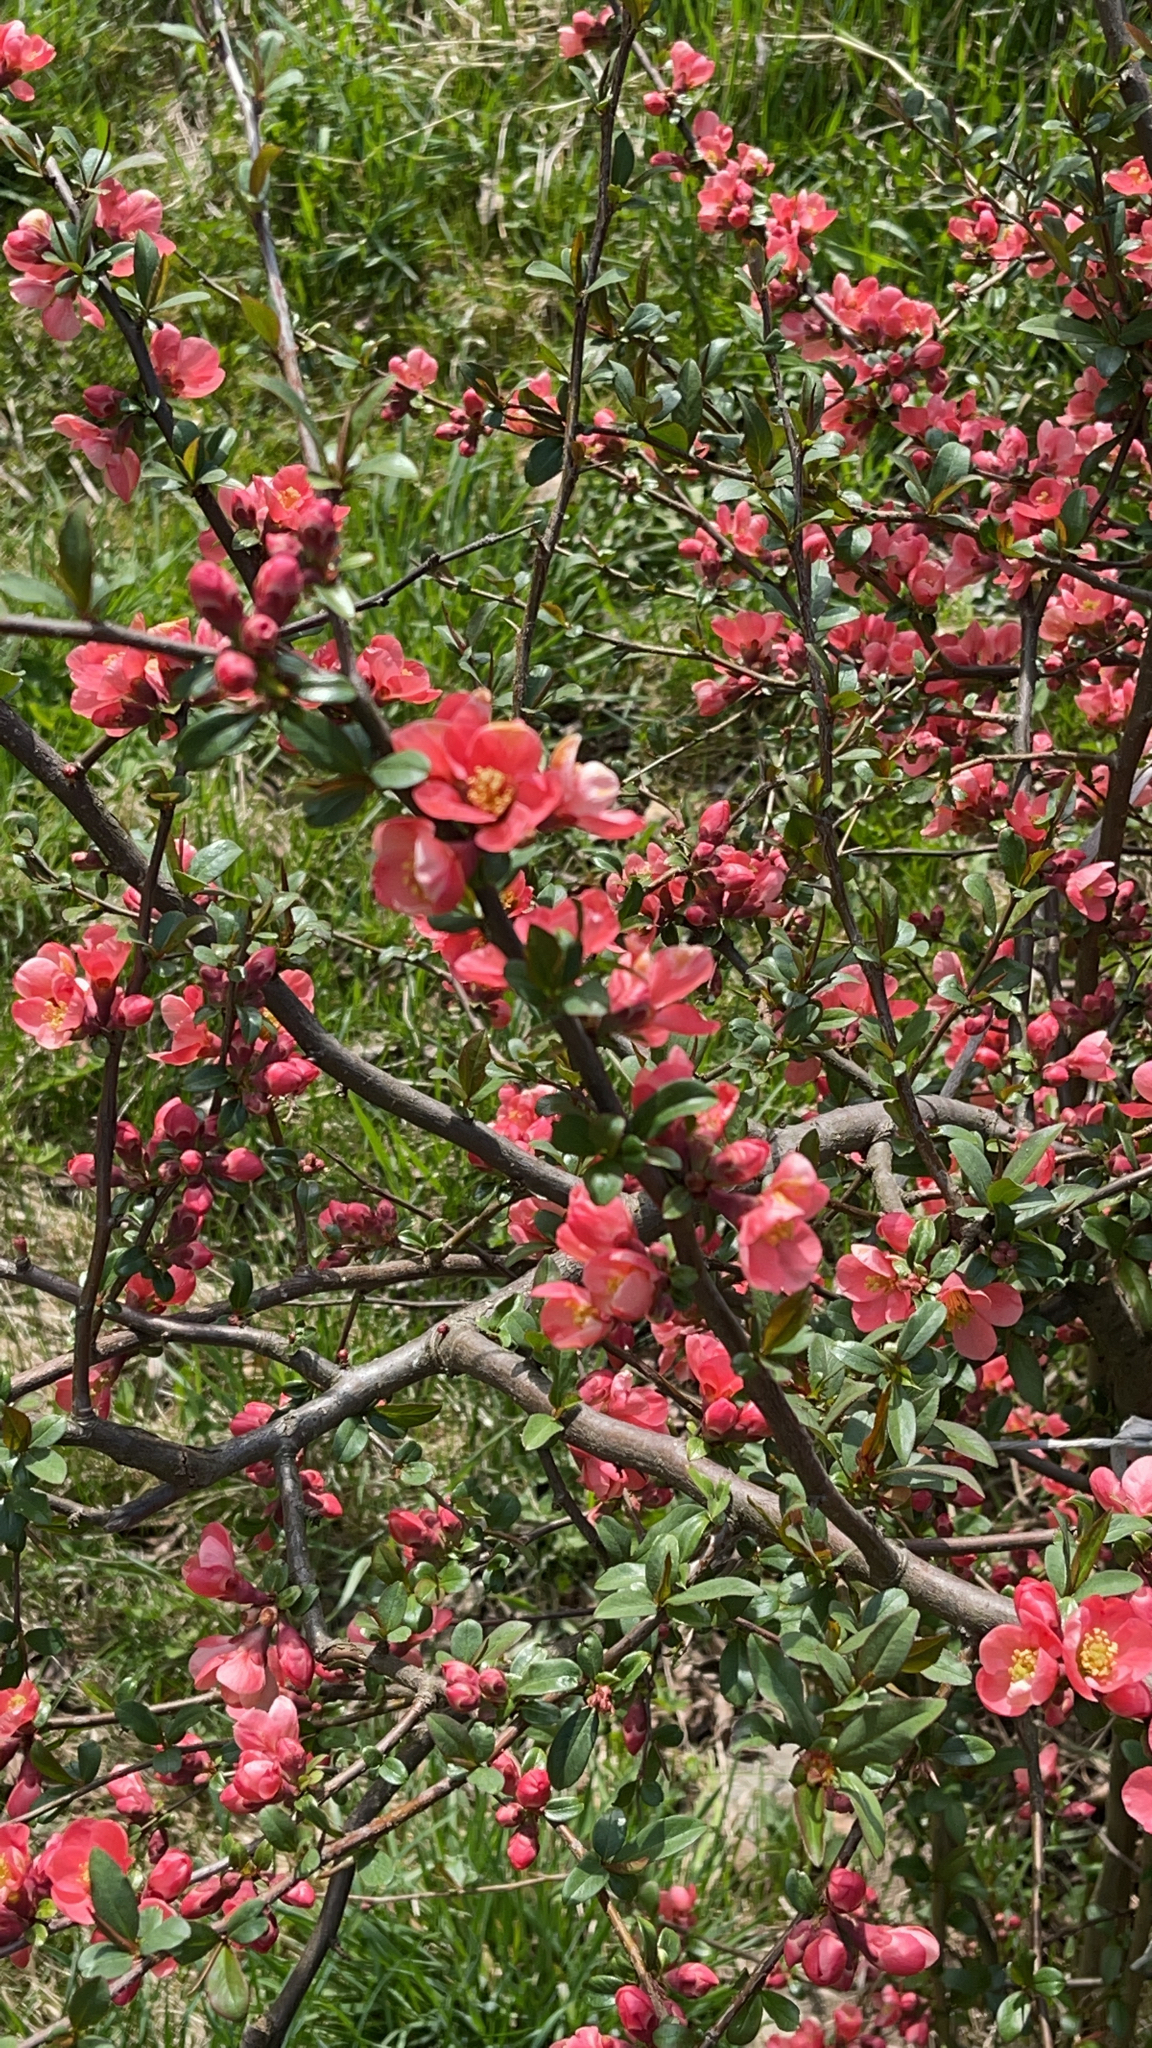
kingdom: Plantae
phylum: Tracheophyta
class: Magnoliopsida
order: Rosales
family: Rosaceae
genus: Chaenomeles
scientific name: Chaenomeles speciosa
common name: Japanese quince
